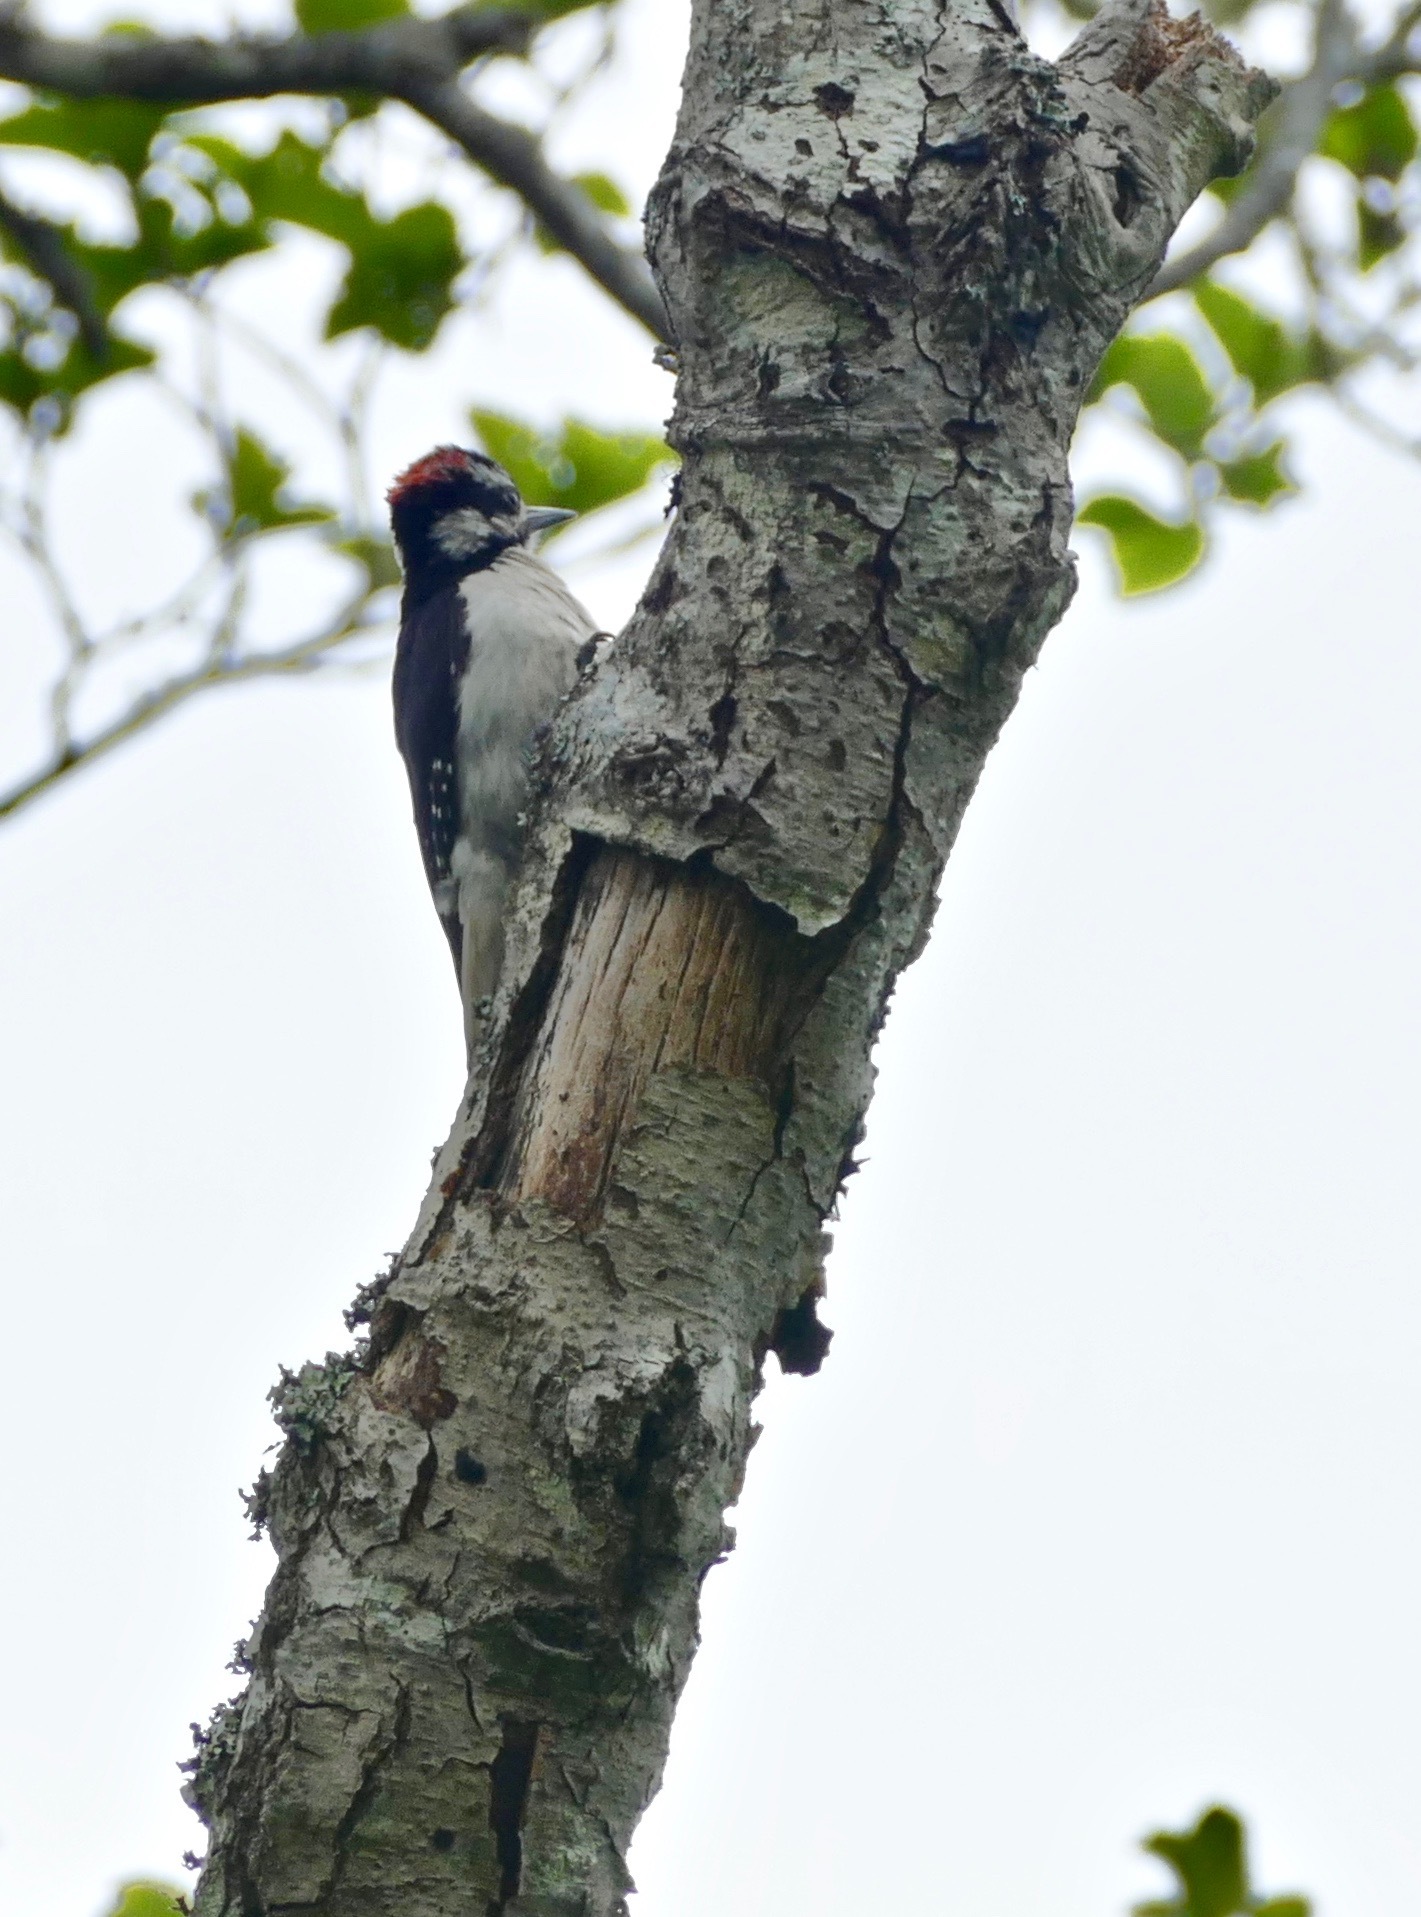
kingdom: Animalia
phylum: Chordata
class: Aves
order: Piciformes
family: Picidae
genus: Leuconotopicus
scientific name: Leuconotopicus villosus
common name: Hairy woodpecker
